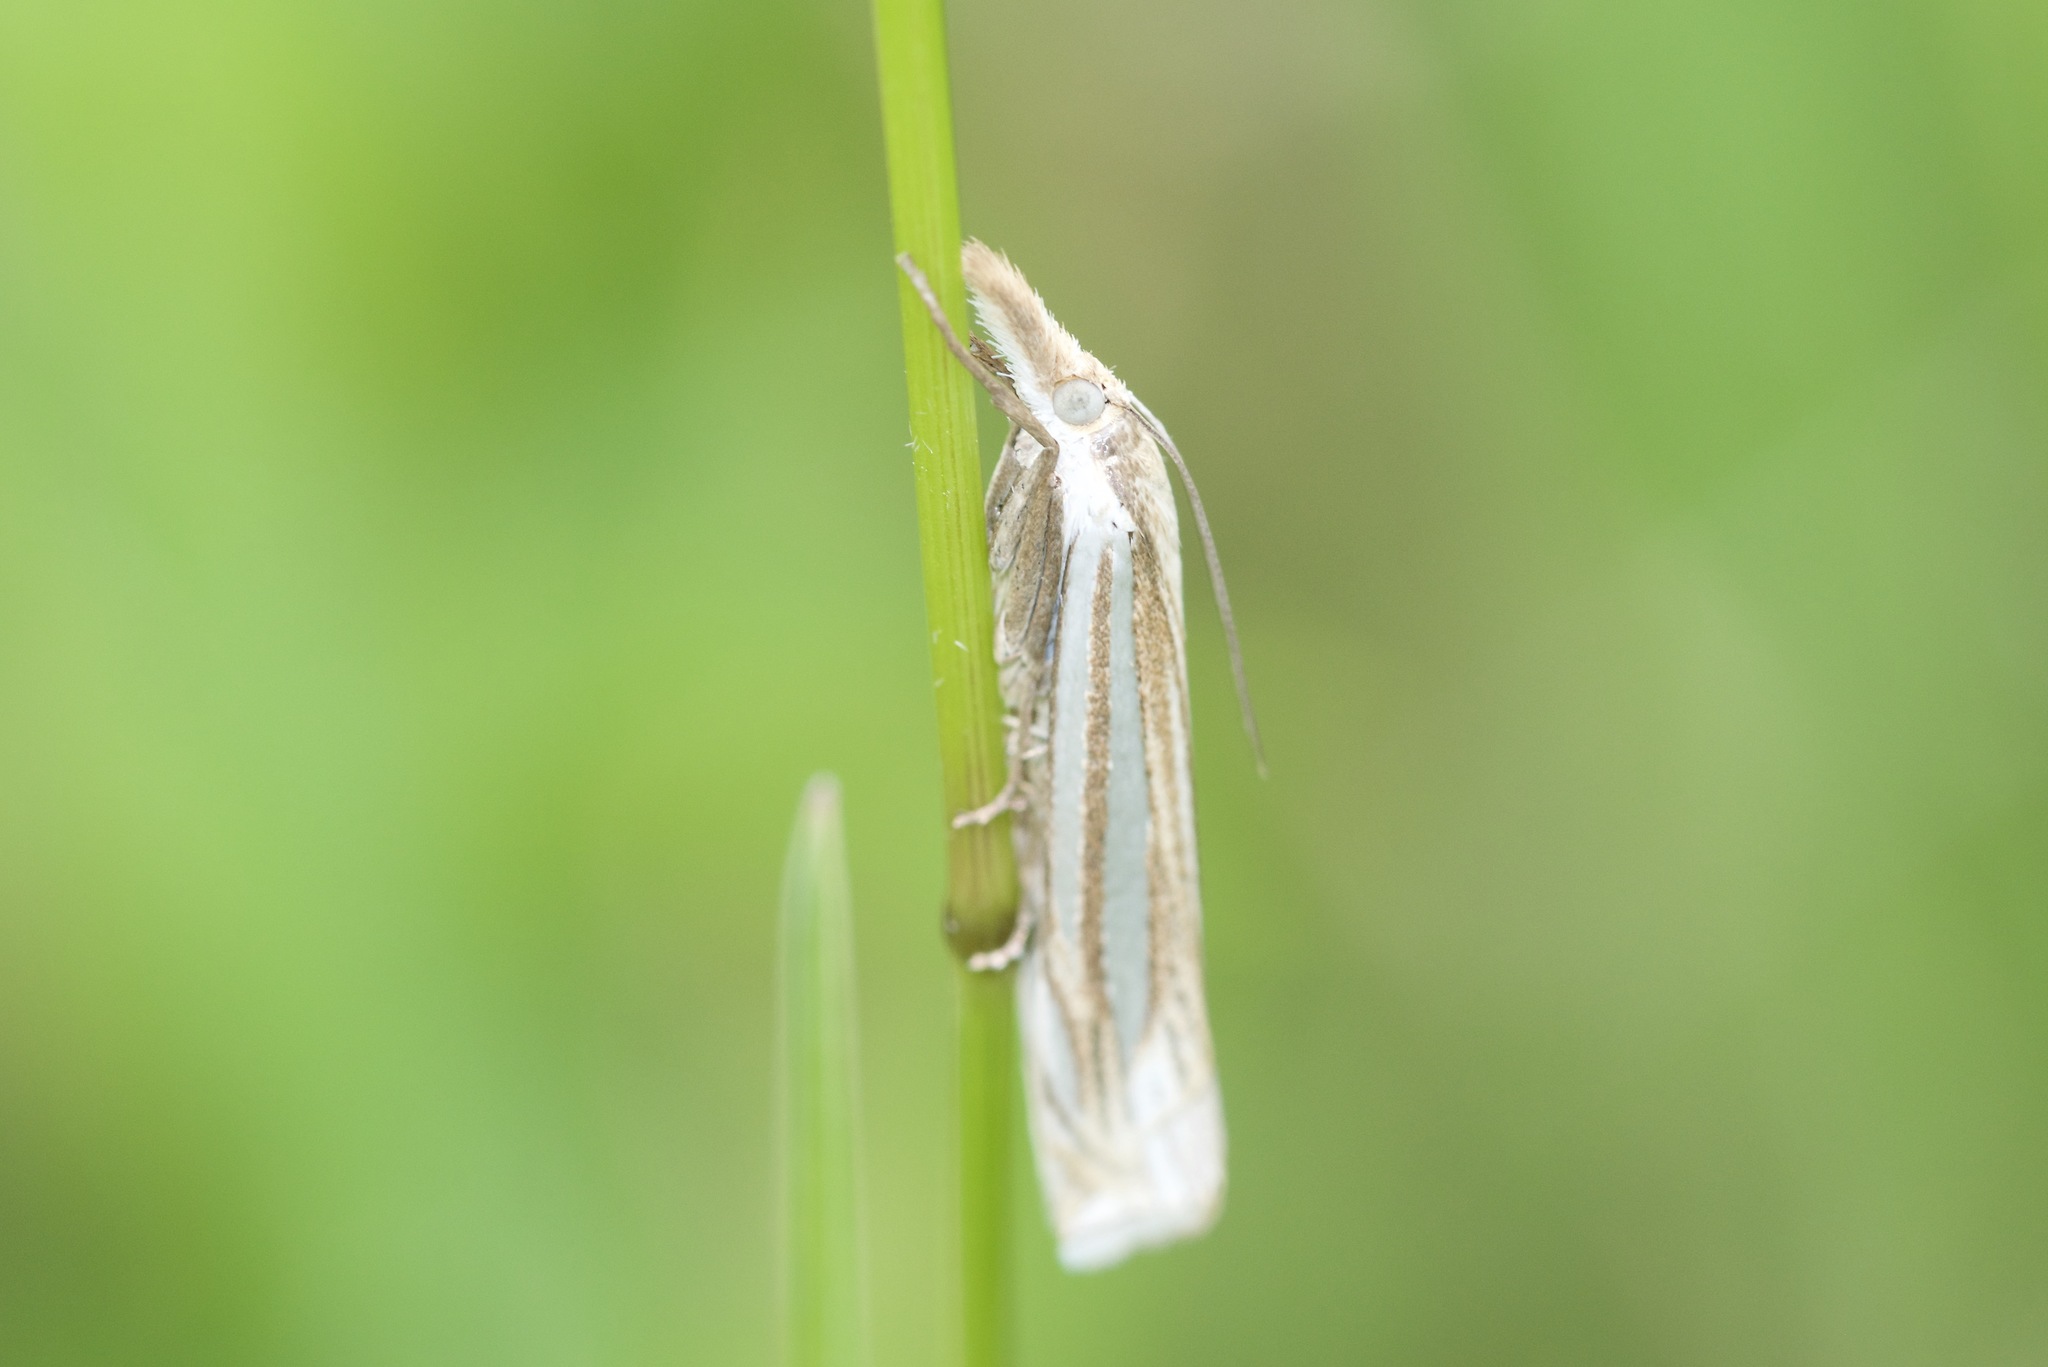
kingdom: Animalia
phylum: Arthropoda
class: Insecta
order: Lepidoptera
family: Crambidae
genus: Crambus
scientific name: Crambus laqueatellus
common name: Eastern grass-veneer
